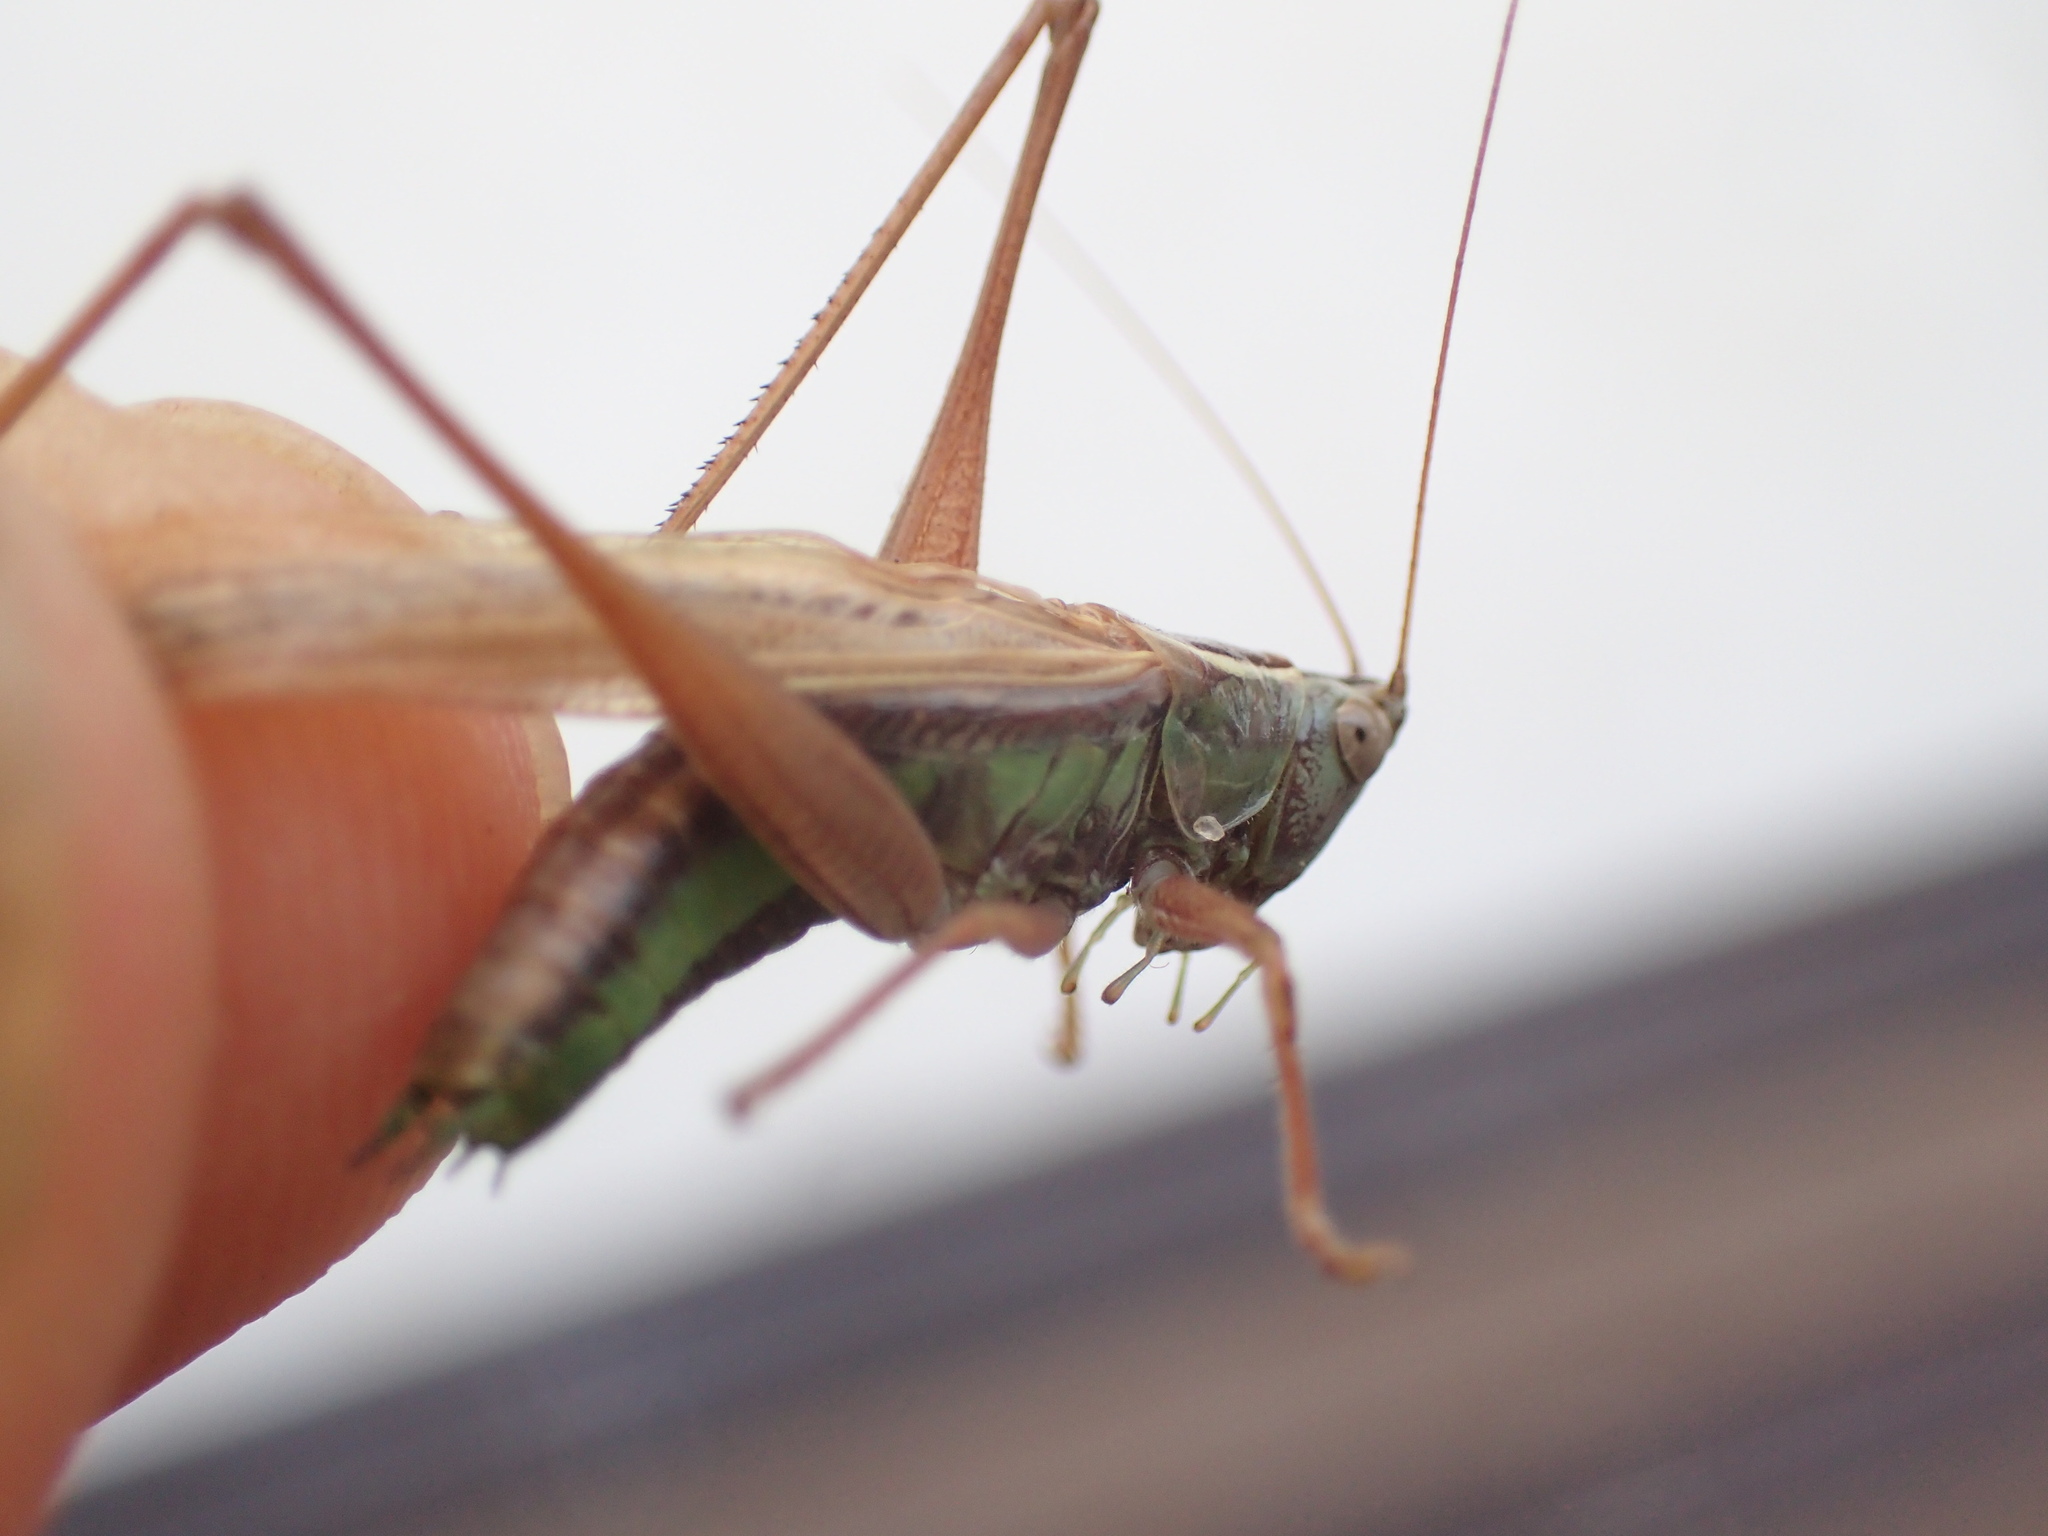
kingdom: Animalia
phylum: Arthropoda
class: Insecta
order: Orthoptera
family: Tettigoniidae
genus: Conocephalus
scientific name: Conocephalus albescens
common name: Whitish meadow katydid
